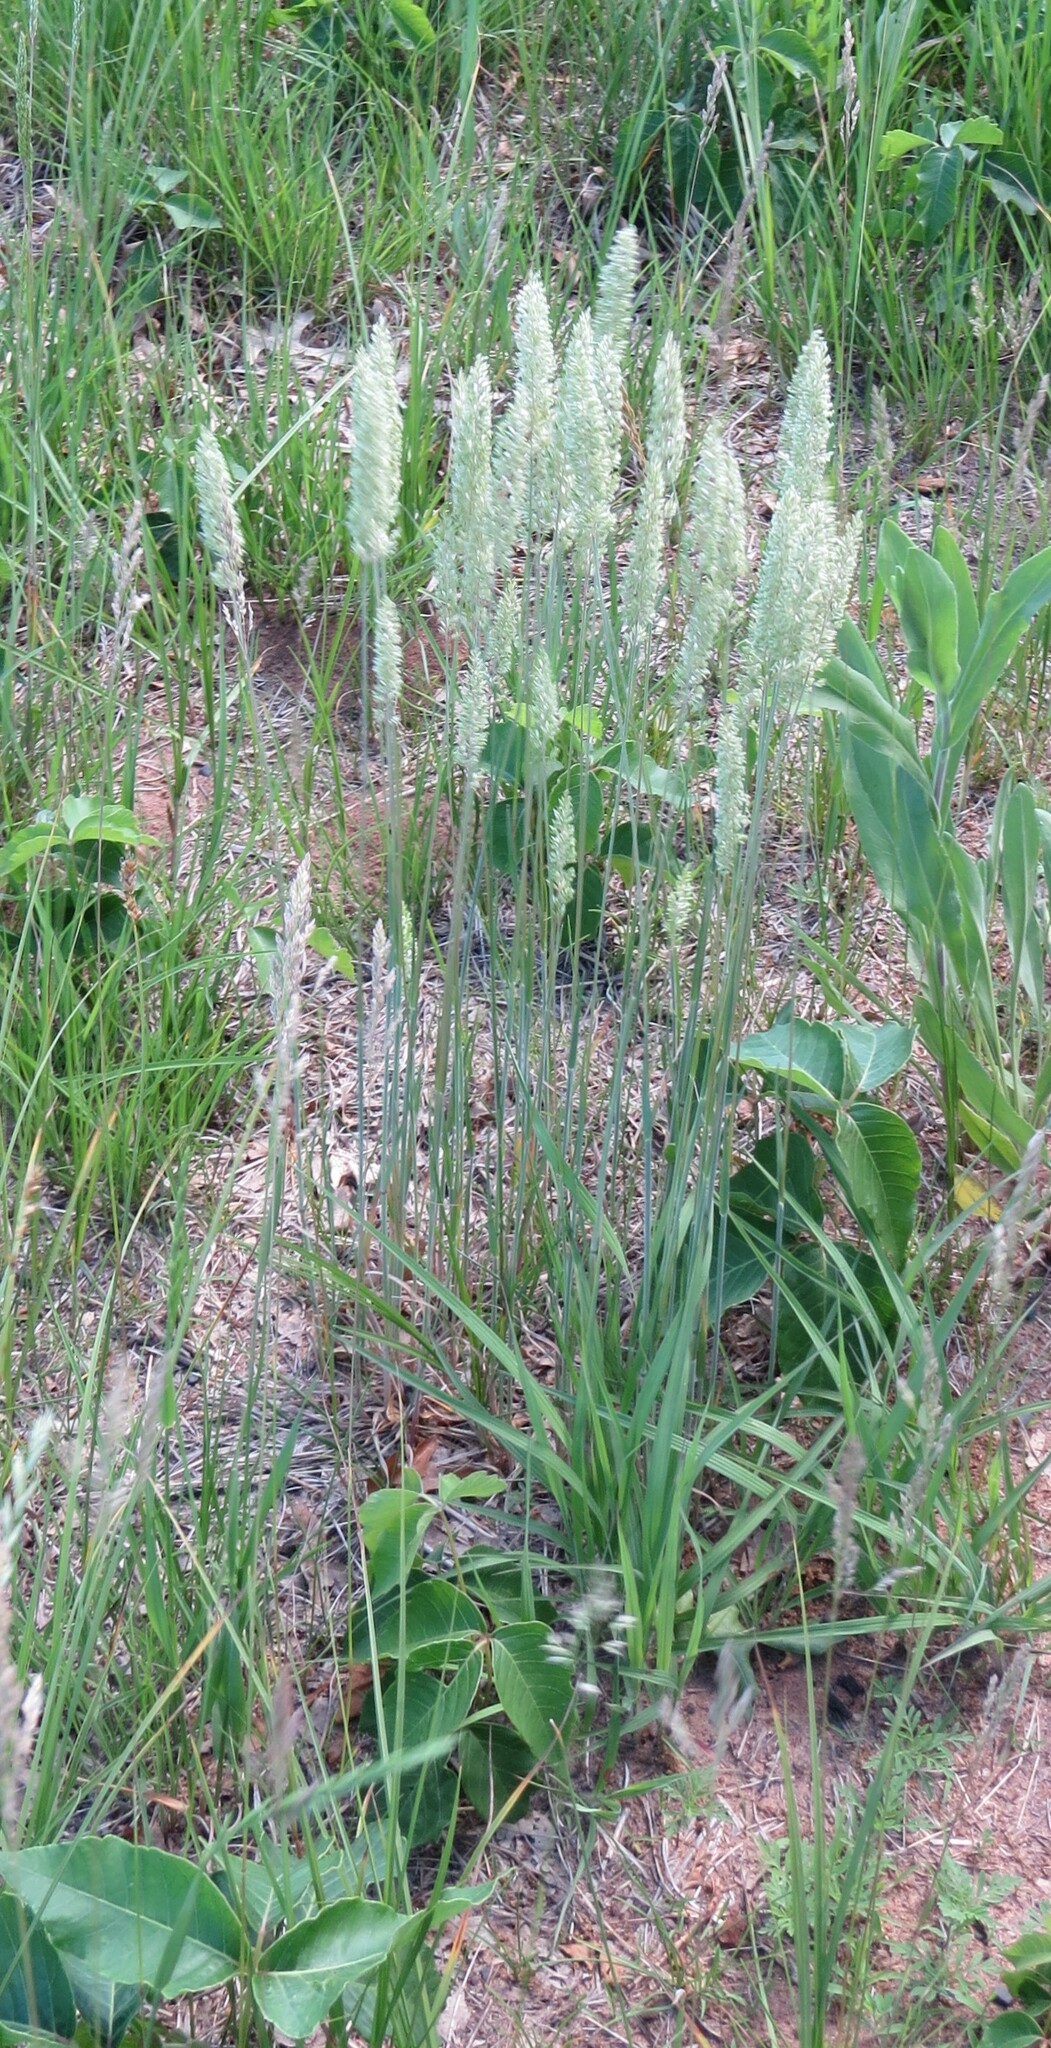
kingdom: Plantae
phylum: Tracheophyta
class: Liliopsida
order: Poales
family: Poaceae
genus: Koeleria
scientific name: Koeleria macrantha
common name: Crested hair-grass
